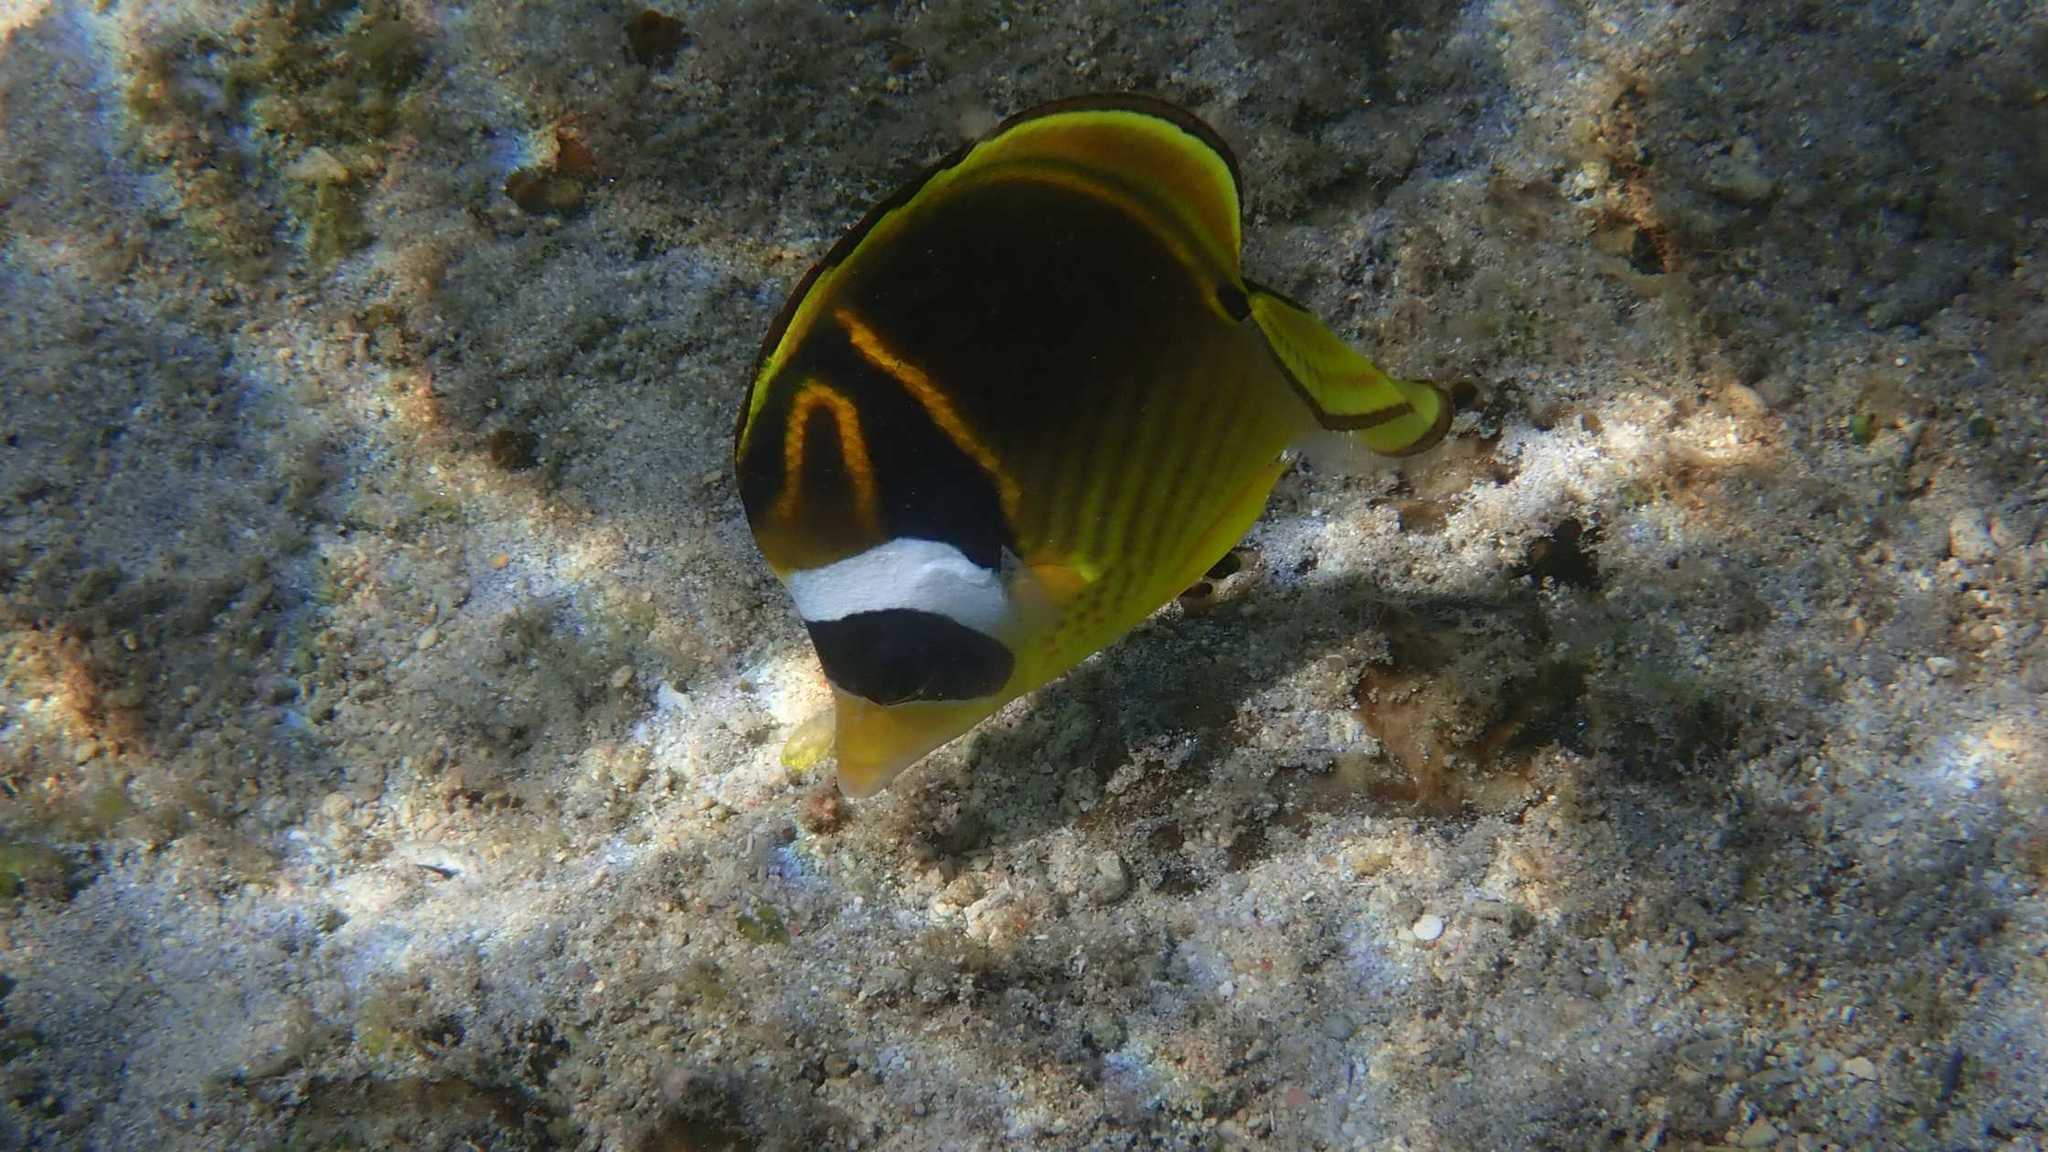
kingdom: Animalia
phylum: Chordata
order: Perciformes
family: Chaetodontidae
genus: Chaetodon
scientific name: Chaetodon lunula
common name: Raccoon butterflyfish
